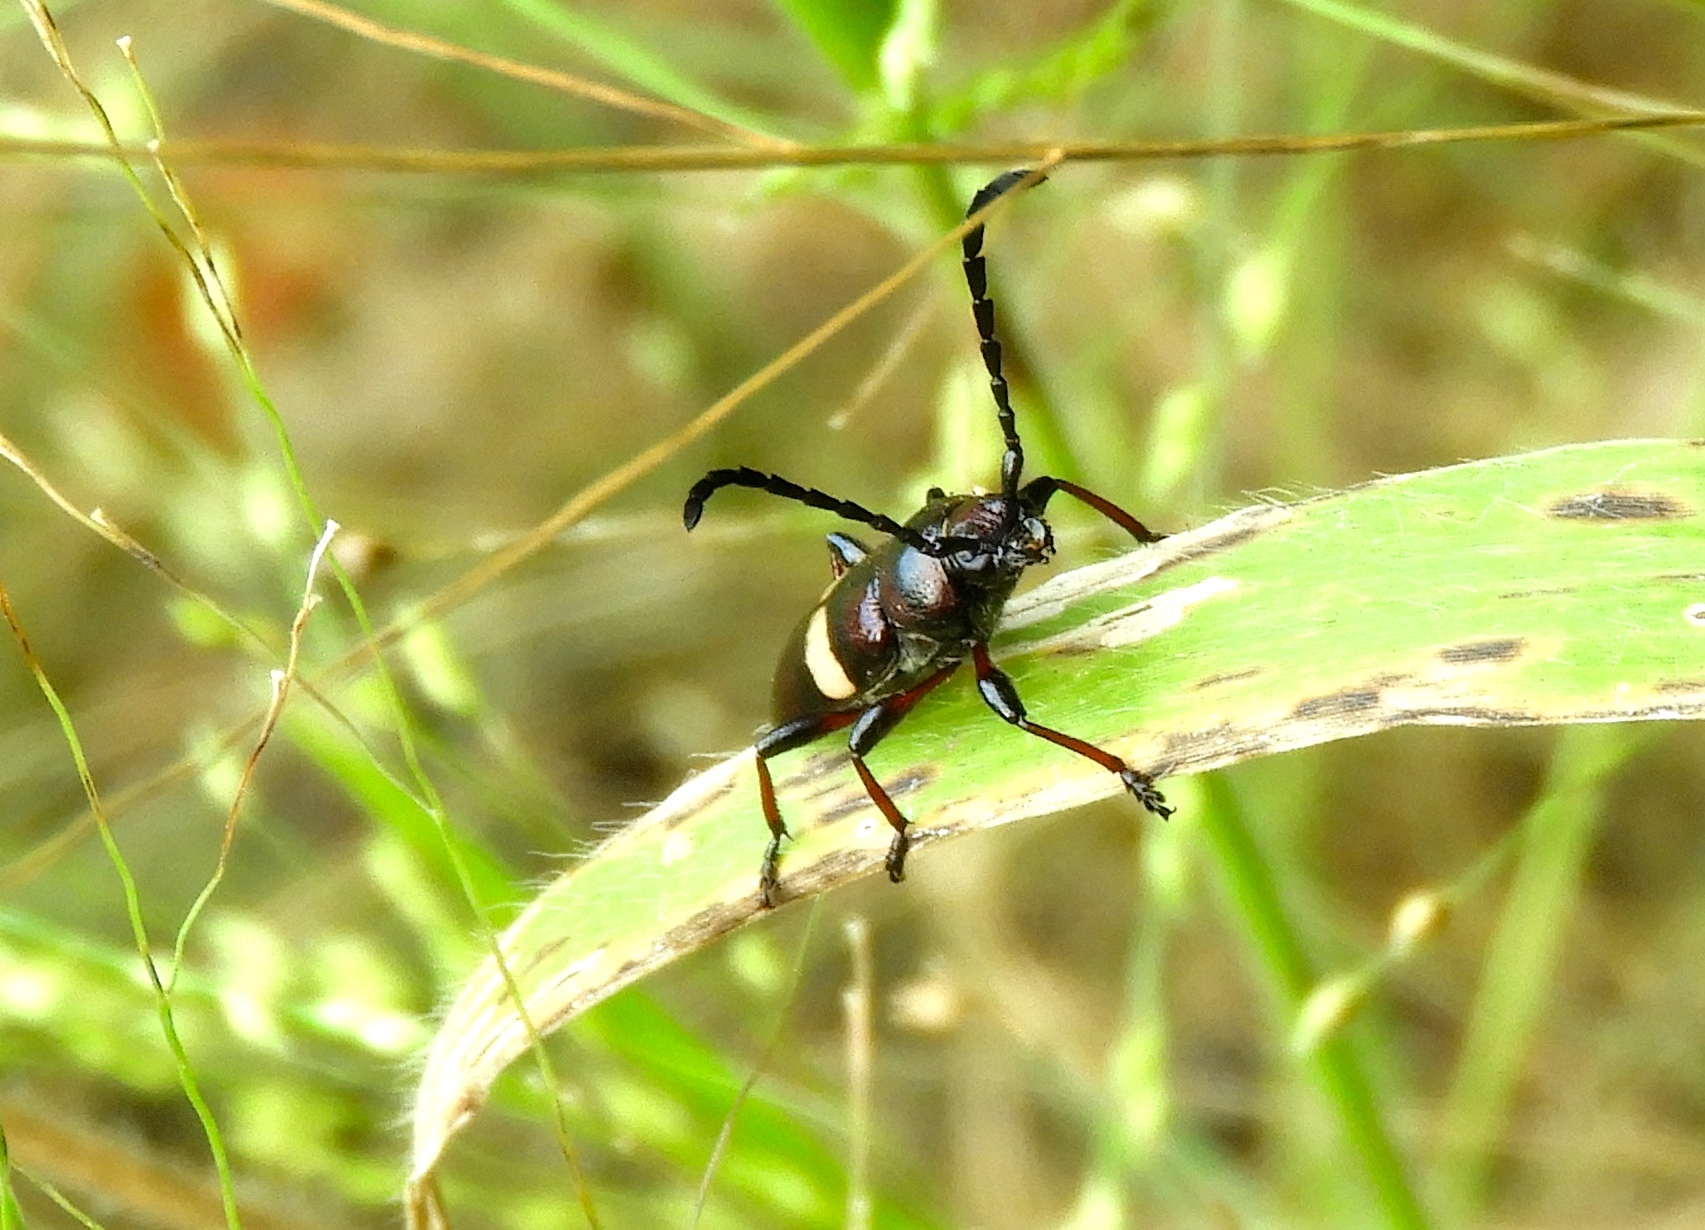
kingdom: Animalia
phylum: Arthropoda
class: Insecta
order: Coleoptera
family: Cerambycidae
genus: Lissonotus
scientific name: Lissonotus flavocinctus
